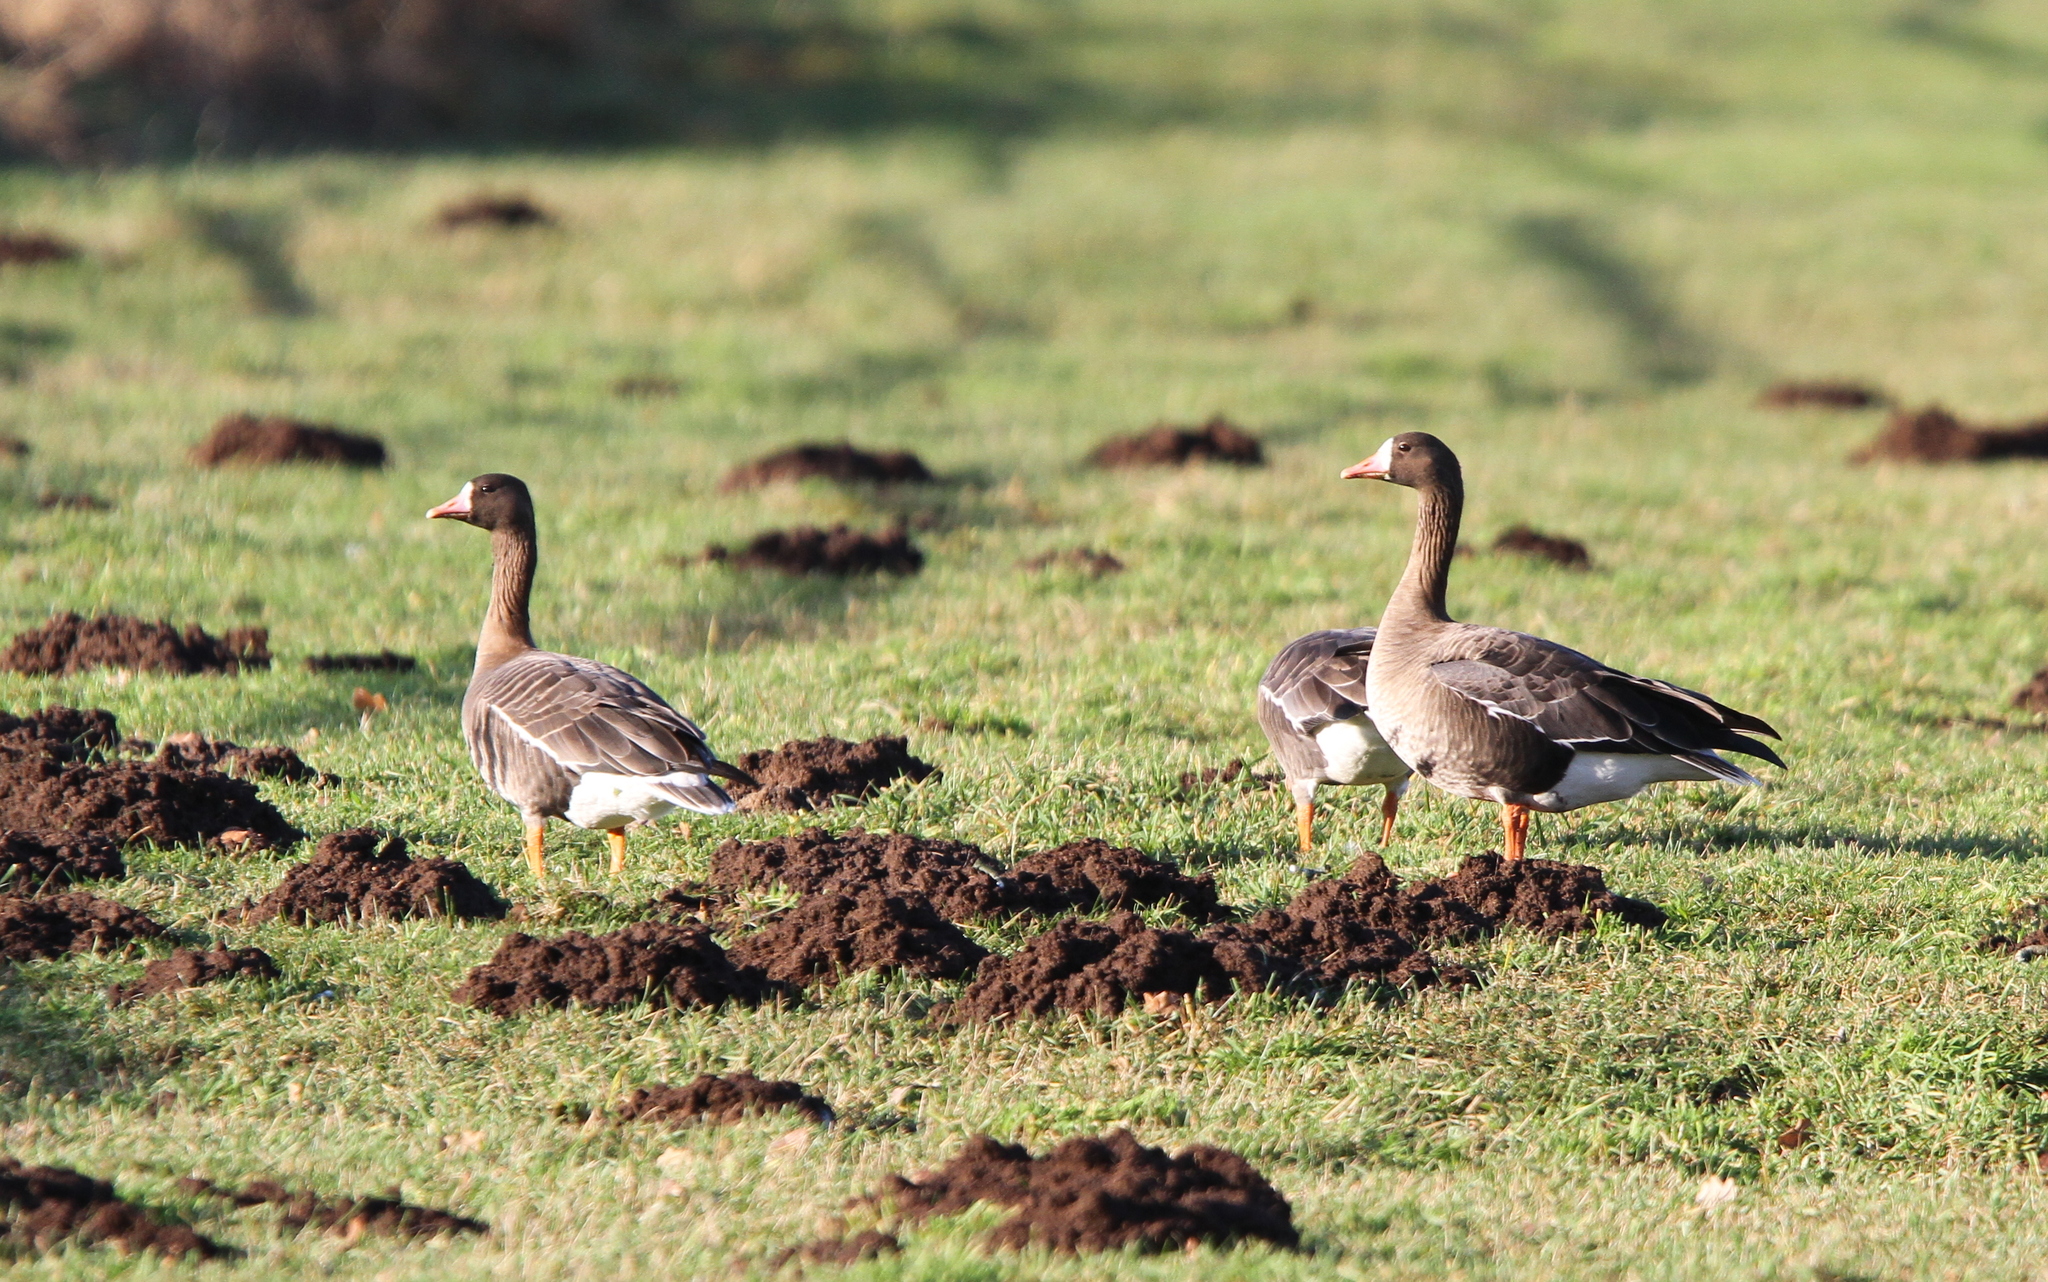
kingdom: Animalia
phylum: Chordata
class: Aves
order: Anseriformes
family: Anatidae
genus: Anser
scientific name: Anser albifrons
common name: Greater white-fronted goose
